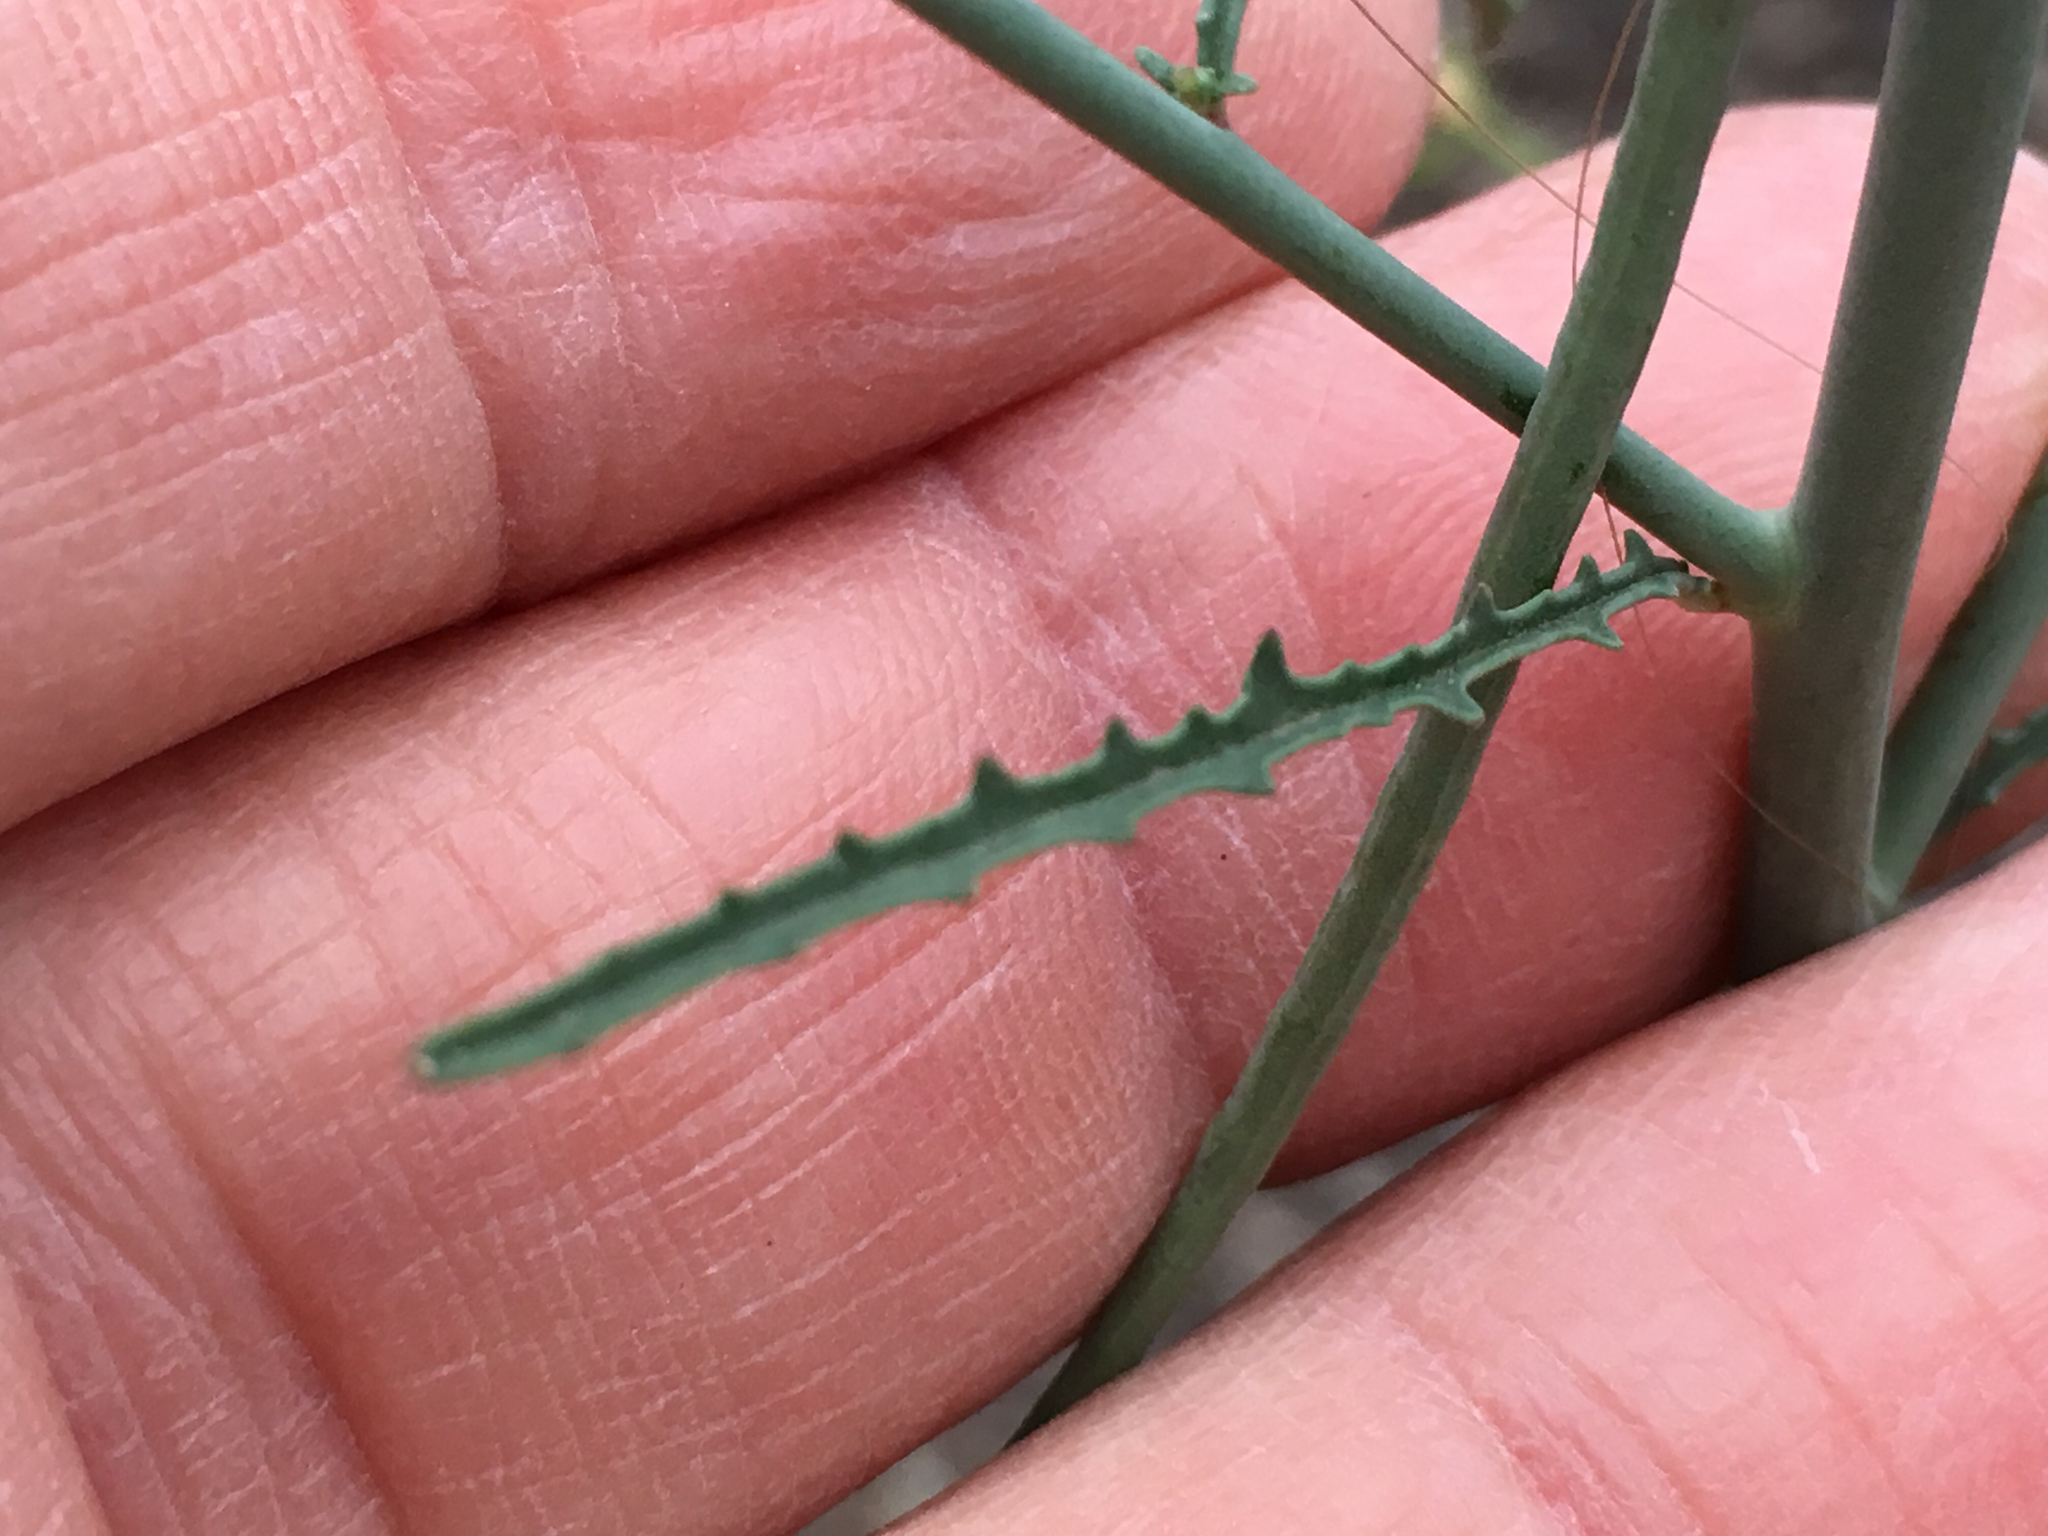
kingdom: Plantae
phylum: Tracheophyta
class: Magnoliopsida
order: Myrtales
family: Onagraceae
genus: Eulobus
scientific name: Eulobus californicus
